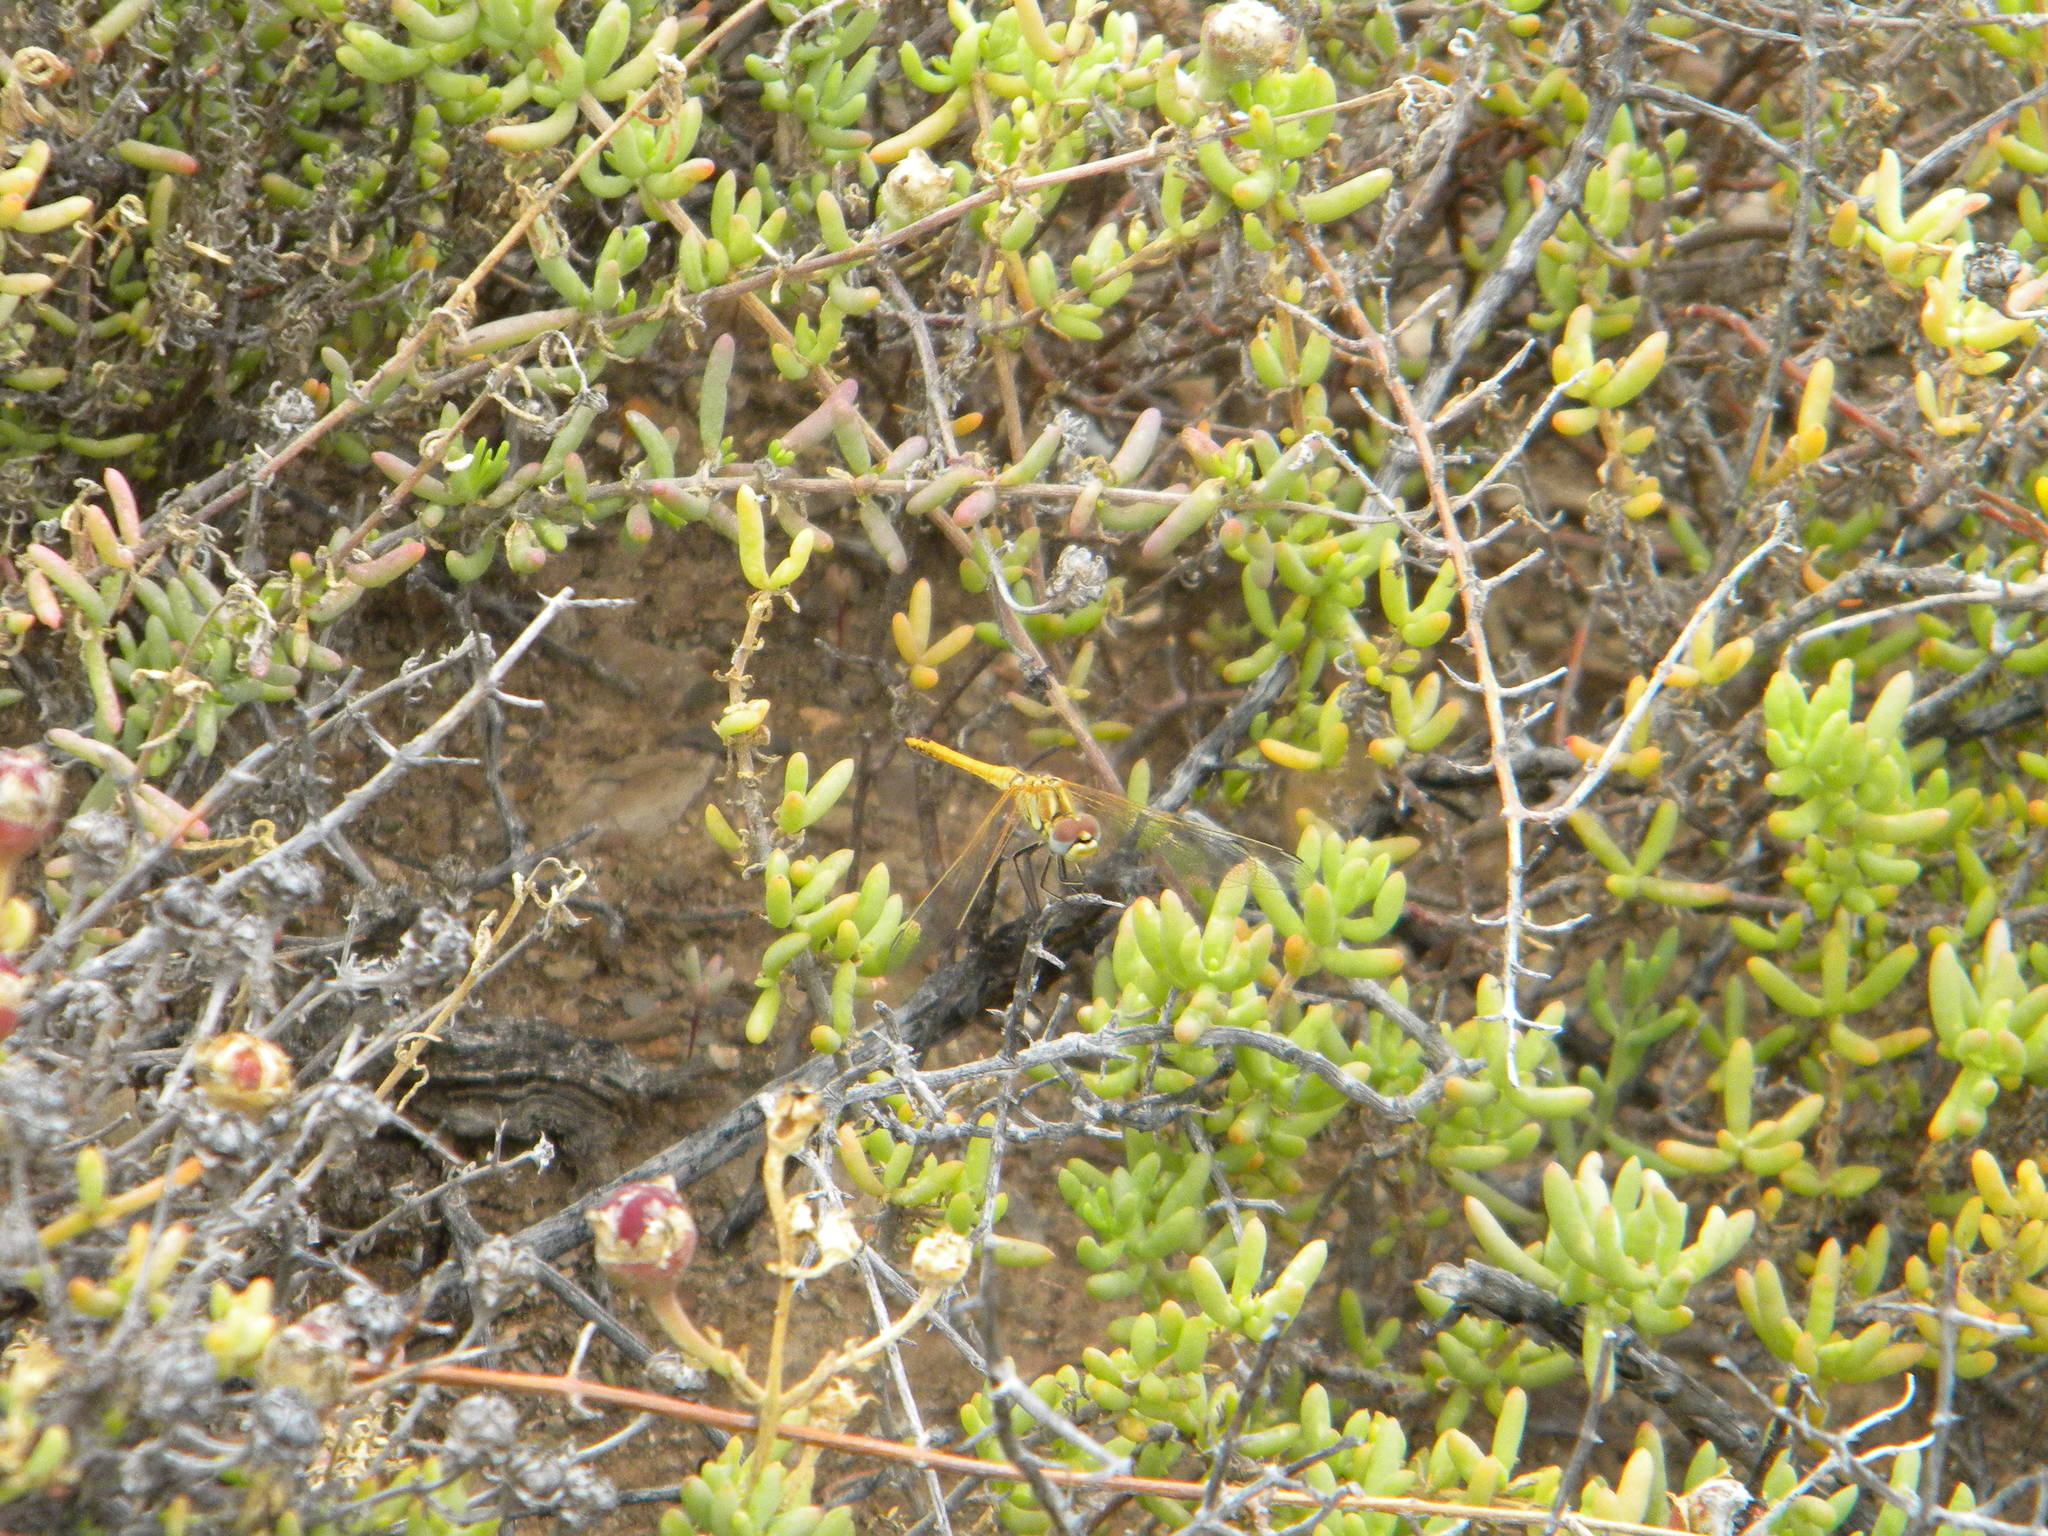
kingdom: Animalia
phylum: Arthropoda
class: Insecta
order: Odonata
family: Libellulidae
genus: Sympetrum
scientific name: Sympetrum fonscolombii
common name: Red-veined darter
